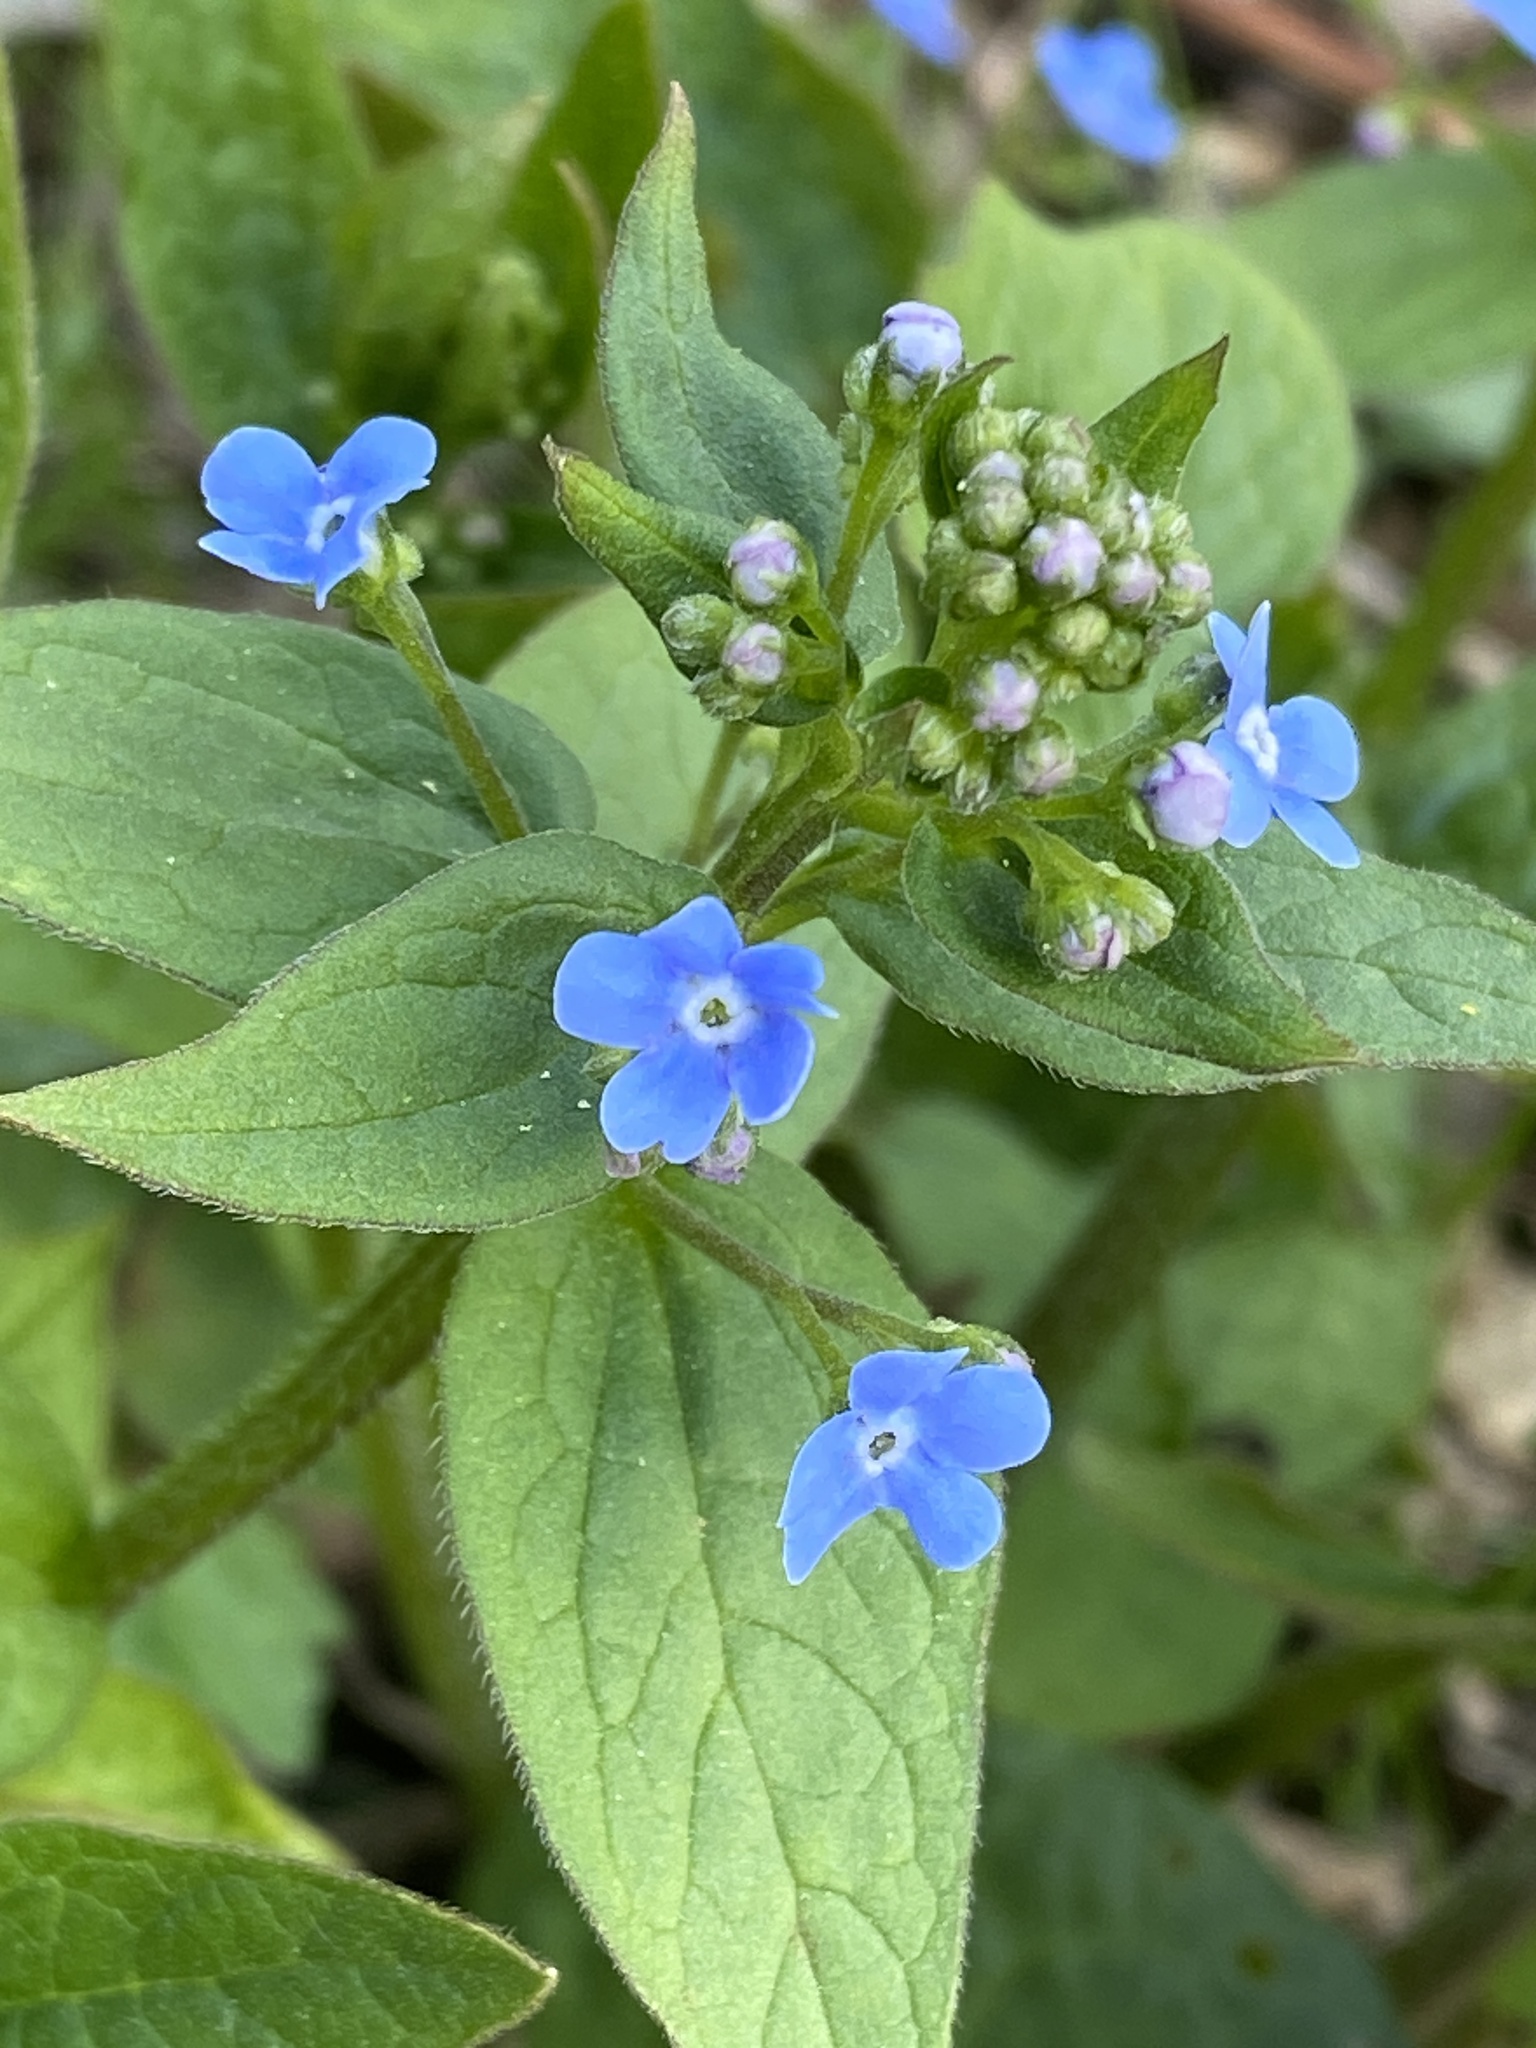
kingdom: Plantae
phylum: Tracheophyta
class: Magnoliopsida
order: Boraginales
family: Boraginaceae
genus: Brunnera
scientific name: Brunnera sibirica
